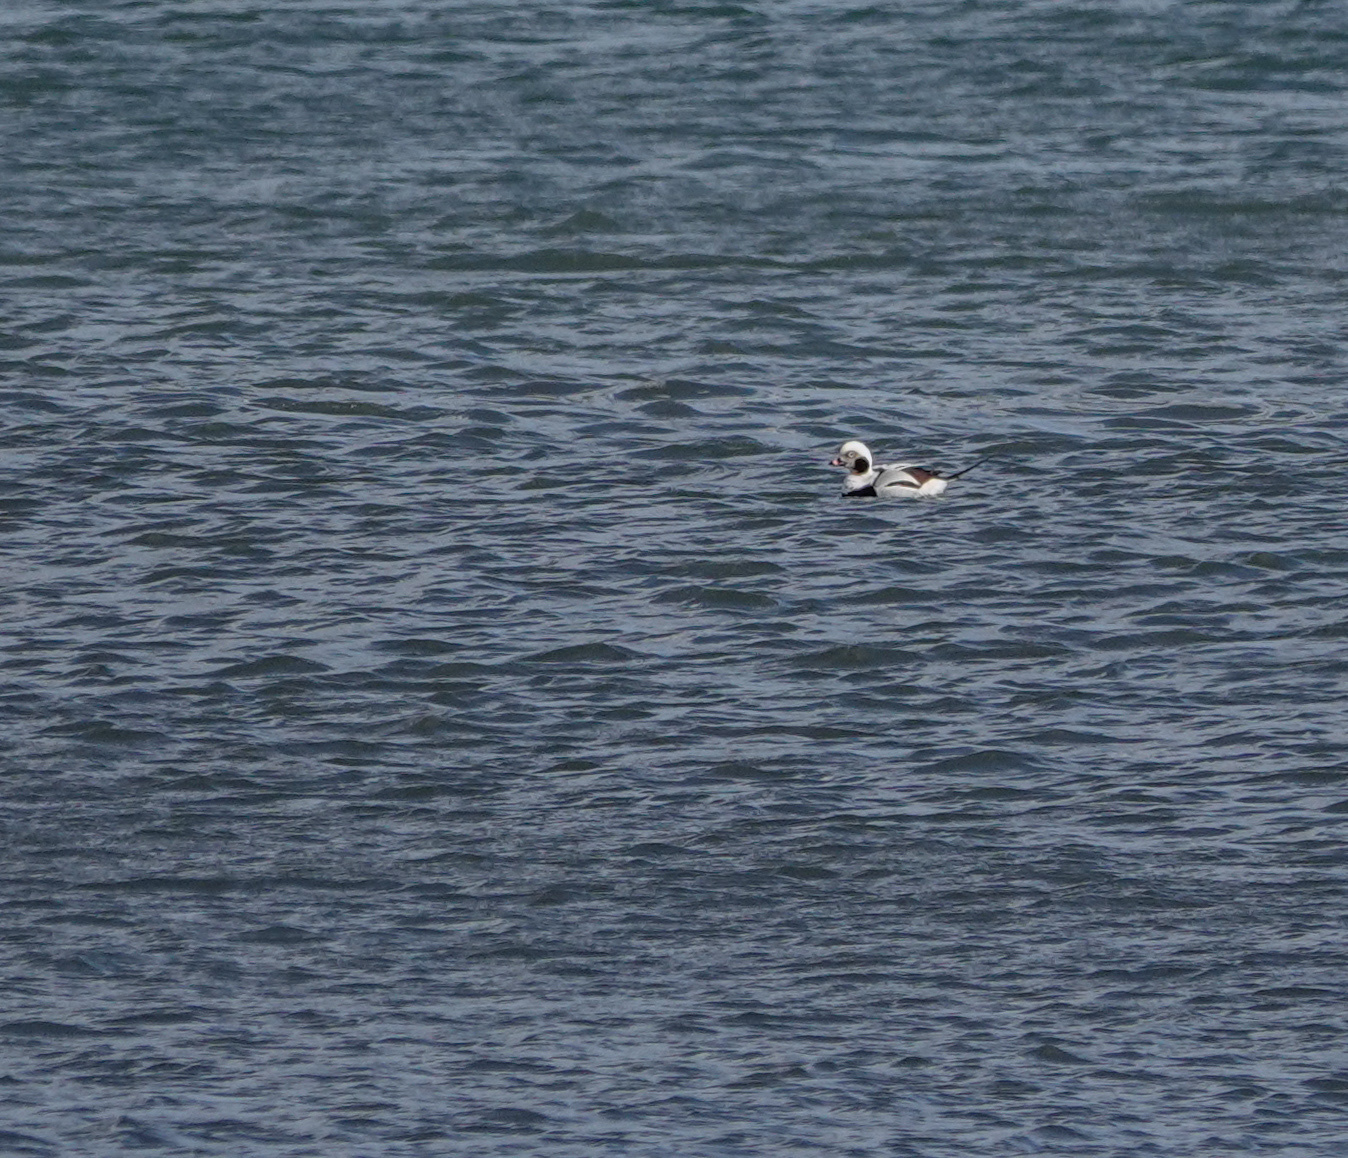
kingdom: Animalia
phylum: Chordata
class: Aves
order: Anseriformes
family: Anatidae
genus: Clangula
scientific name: Clangula hyemalis
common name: Long-tailed duck
